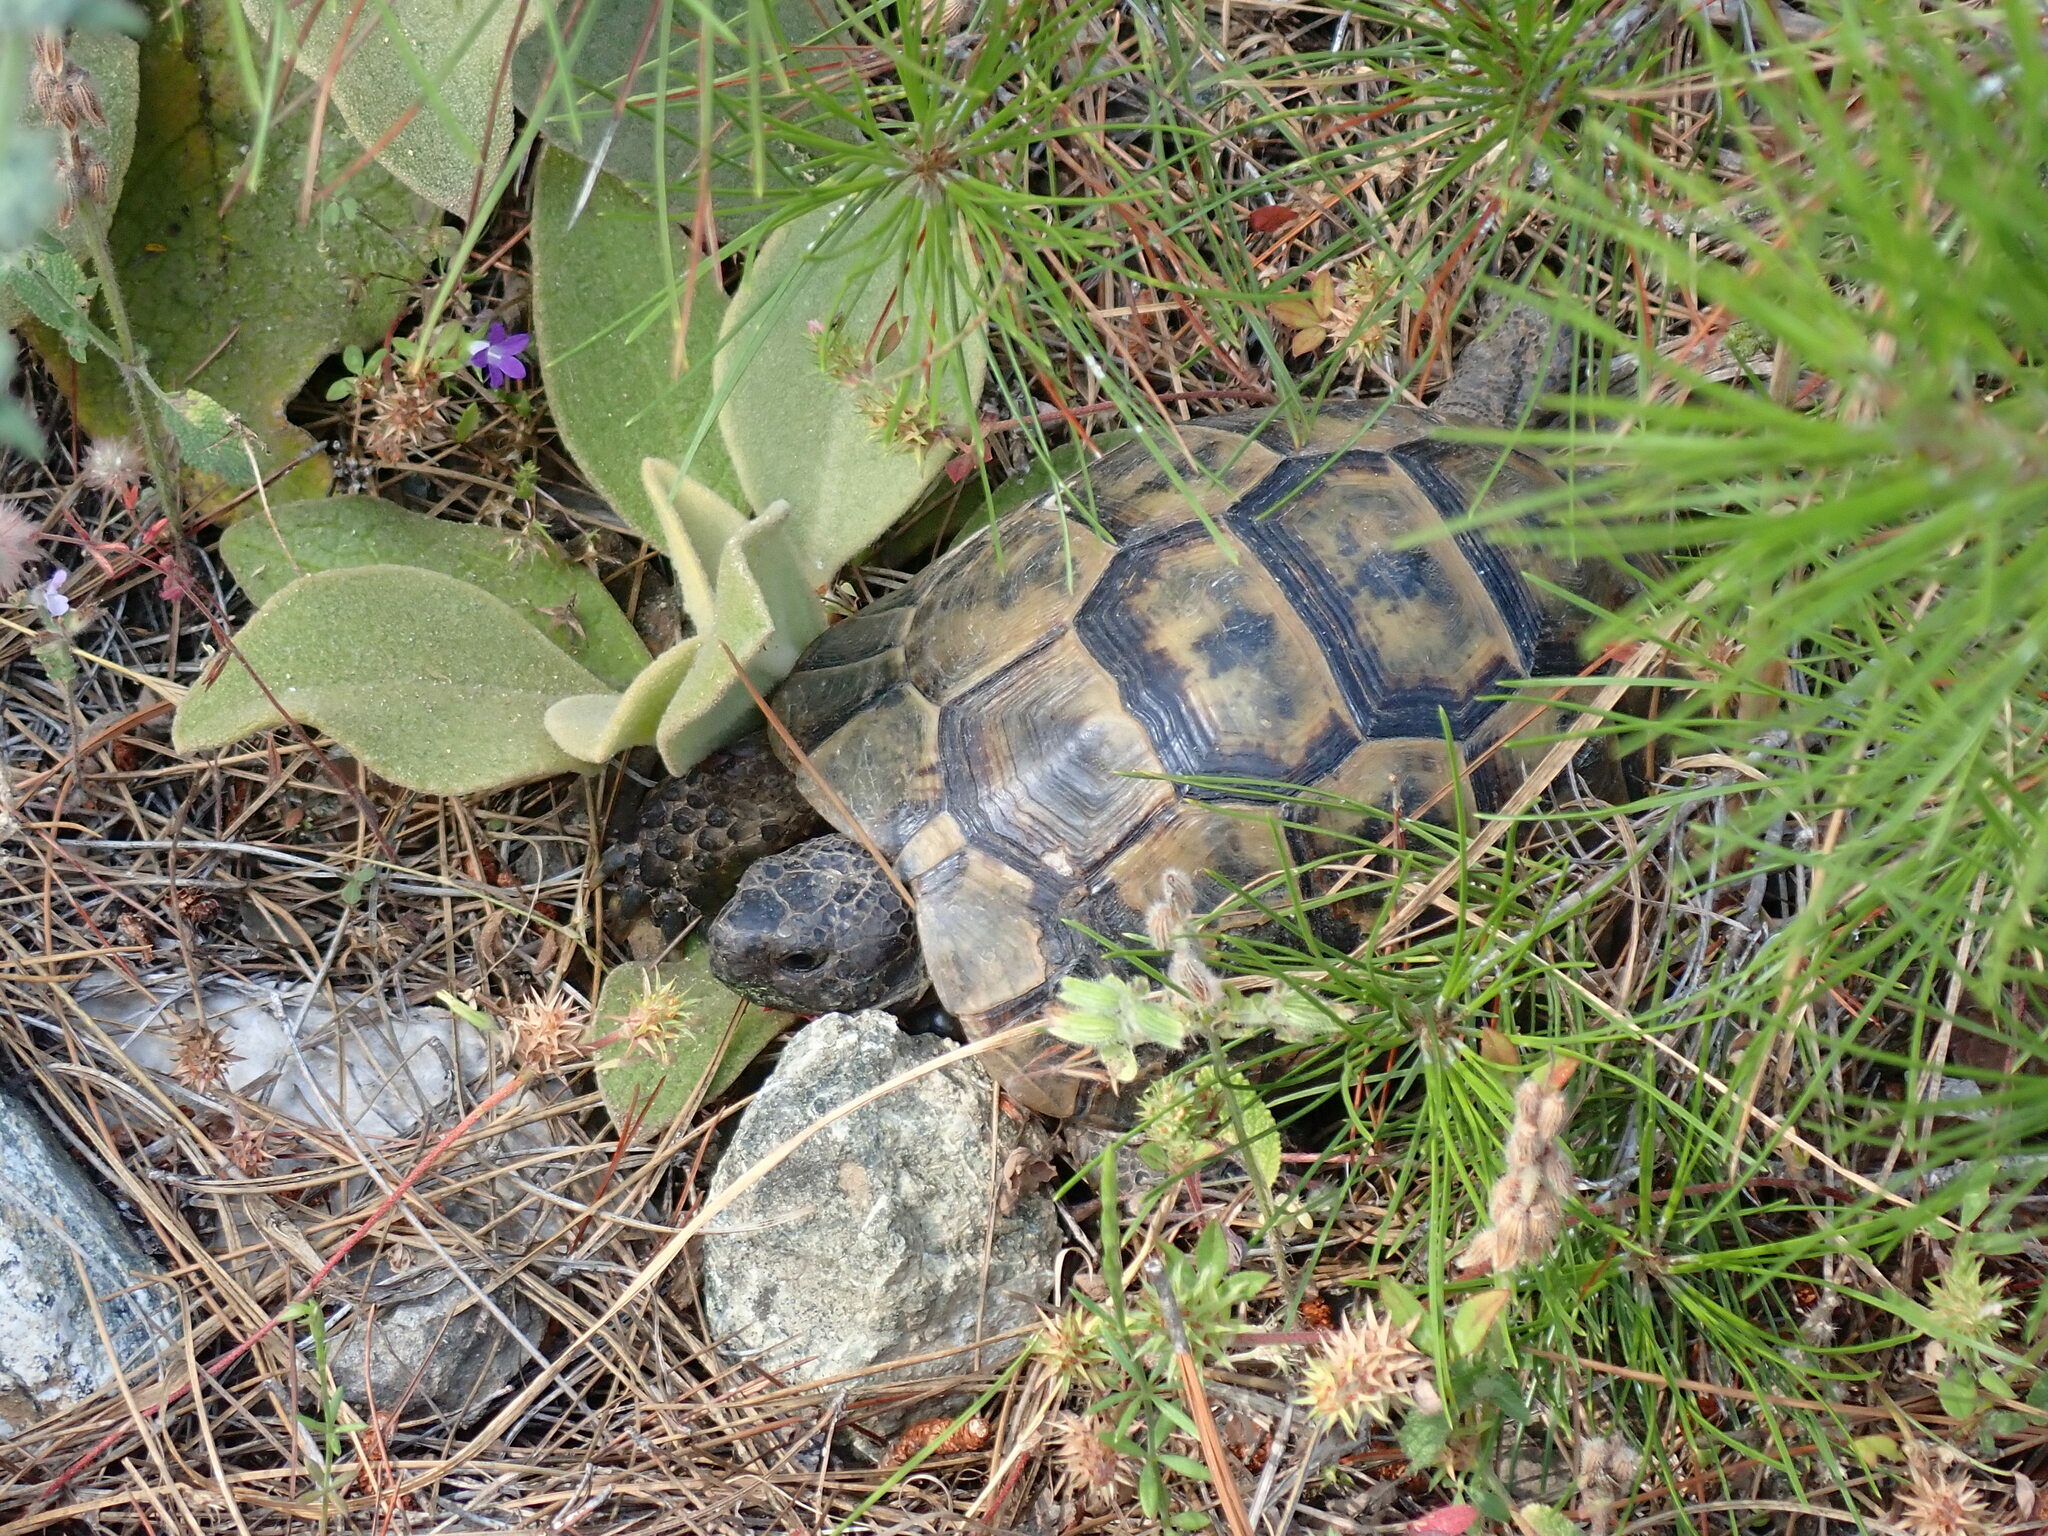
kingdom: Animalia
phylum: Chordata
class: Testudines
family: Testudinidae
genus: Testudo
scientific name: Testudo graeca
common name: Common tortoise
